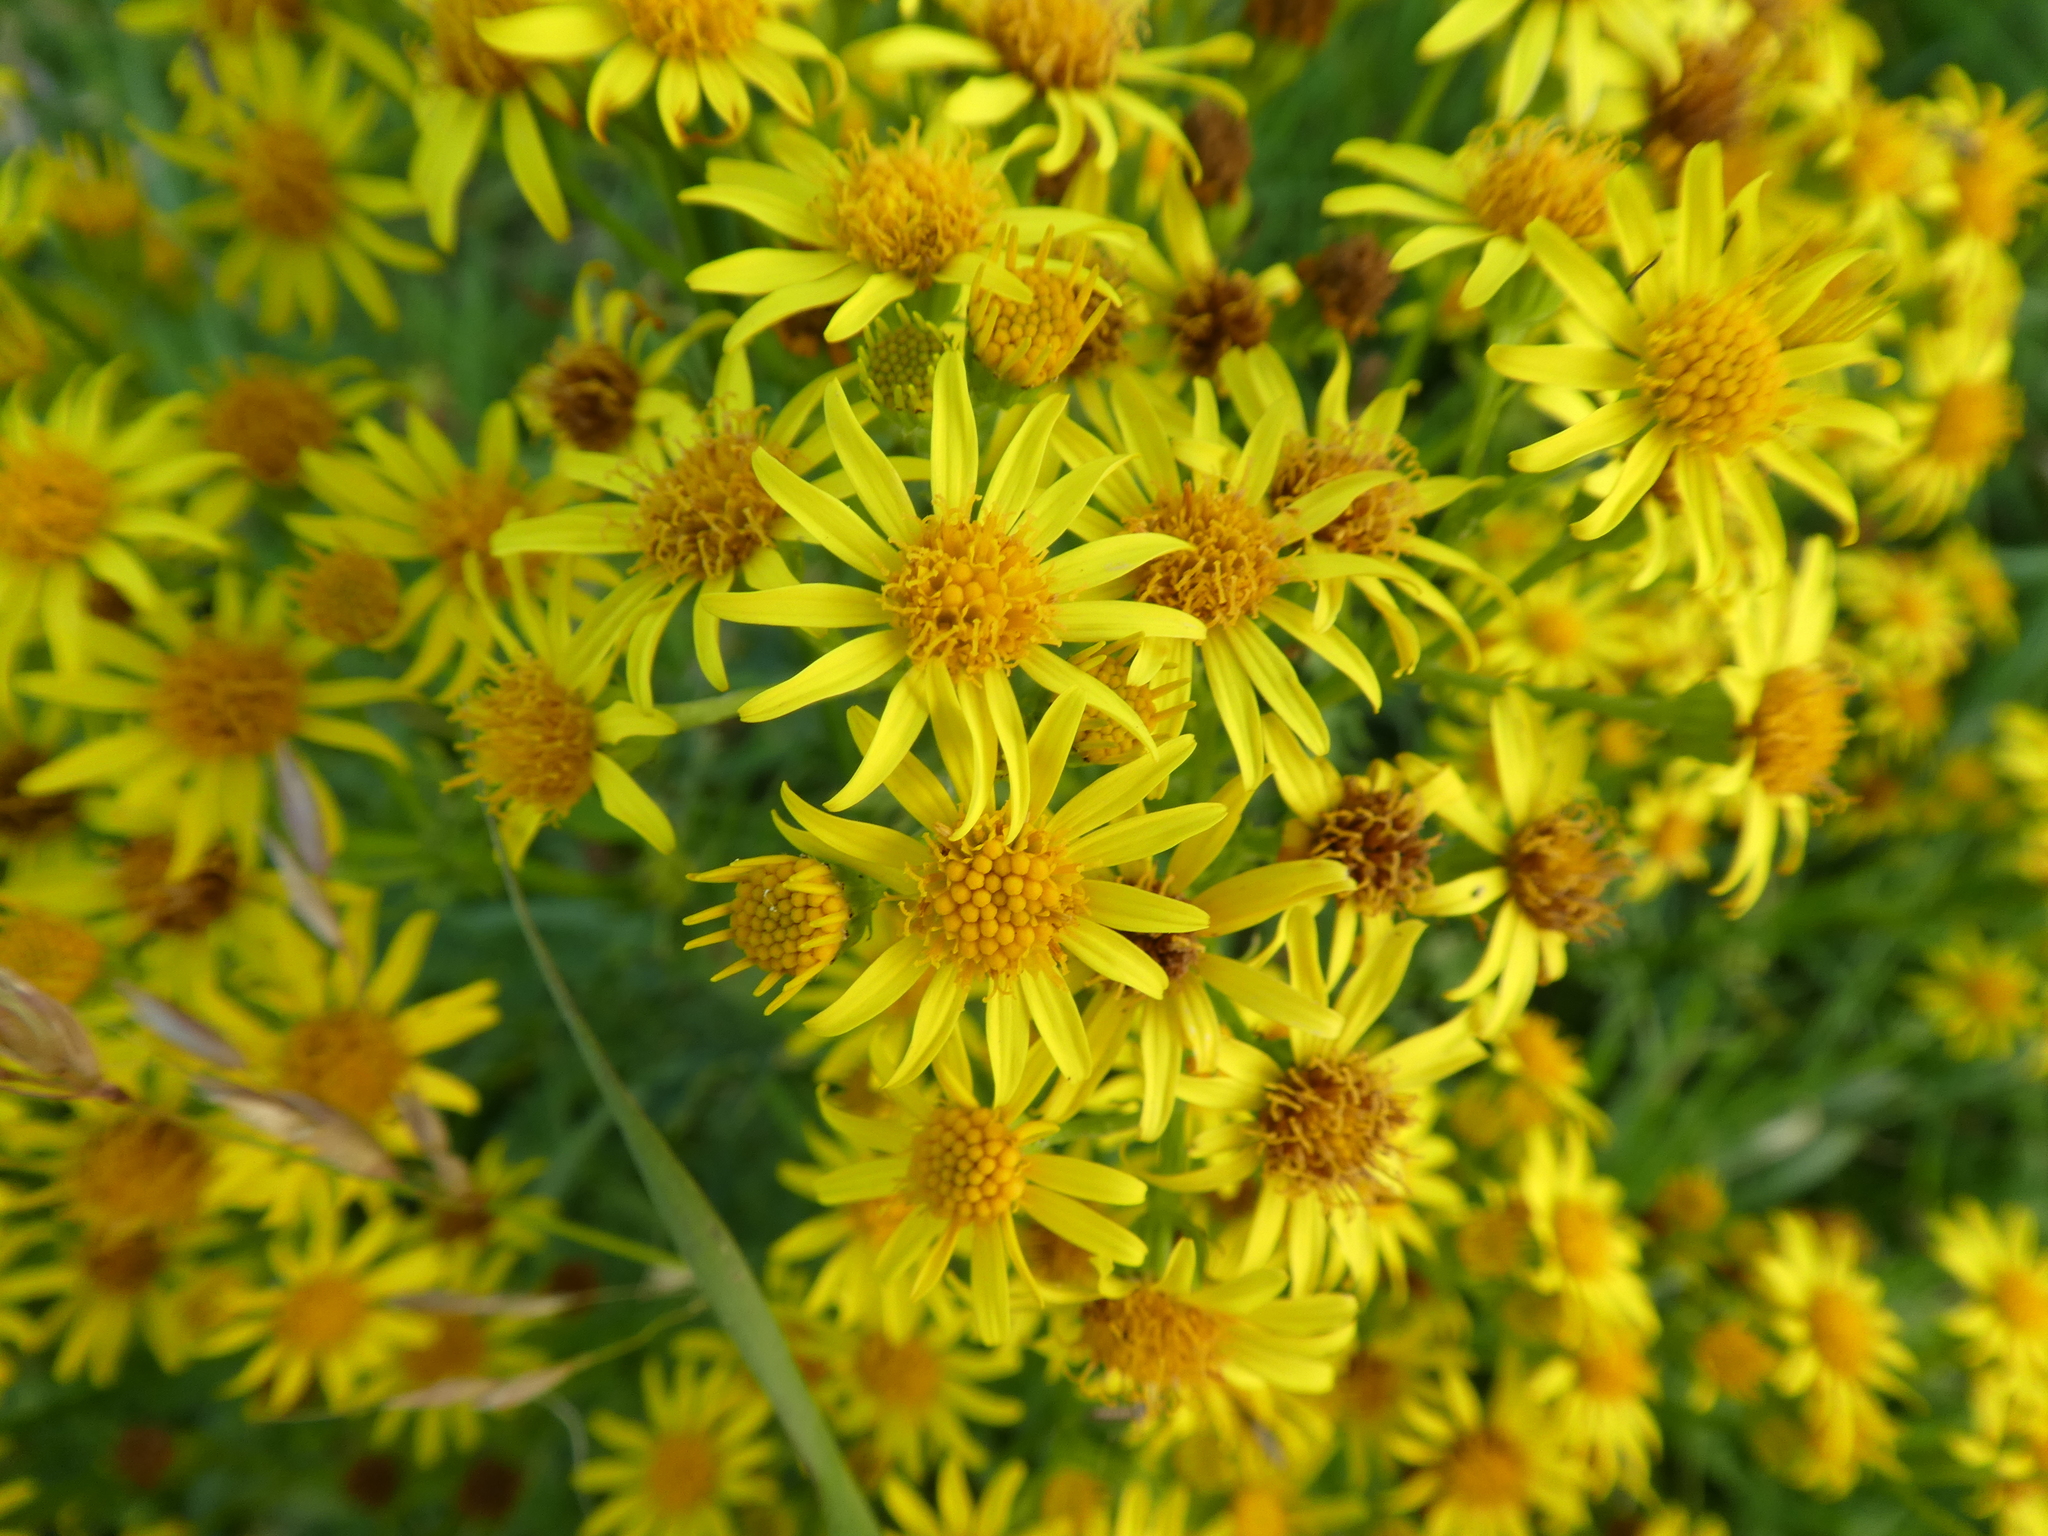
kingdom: Plantae
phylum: Tracheophyta
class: Magnoliopsida
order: Asterales
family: Asteraceae
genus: Jacobaea
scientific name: Jacobaea vulgaris
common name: Stinking willie
